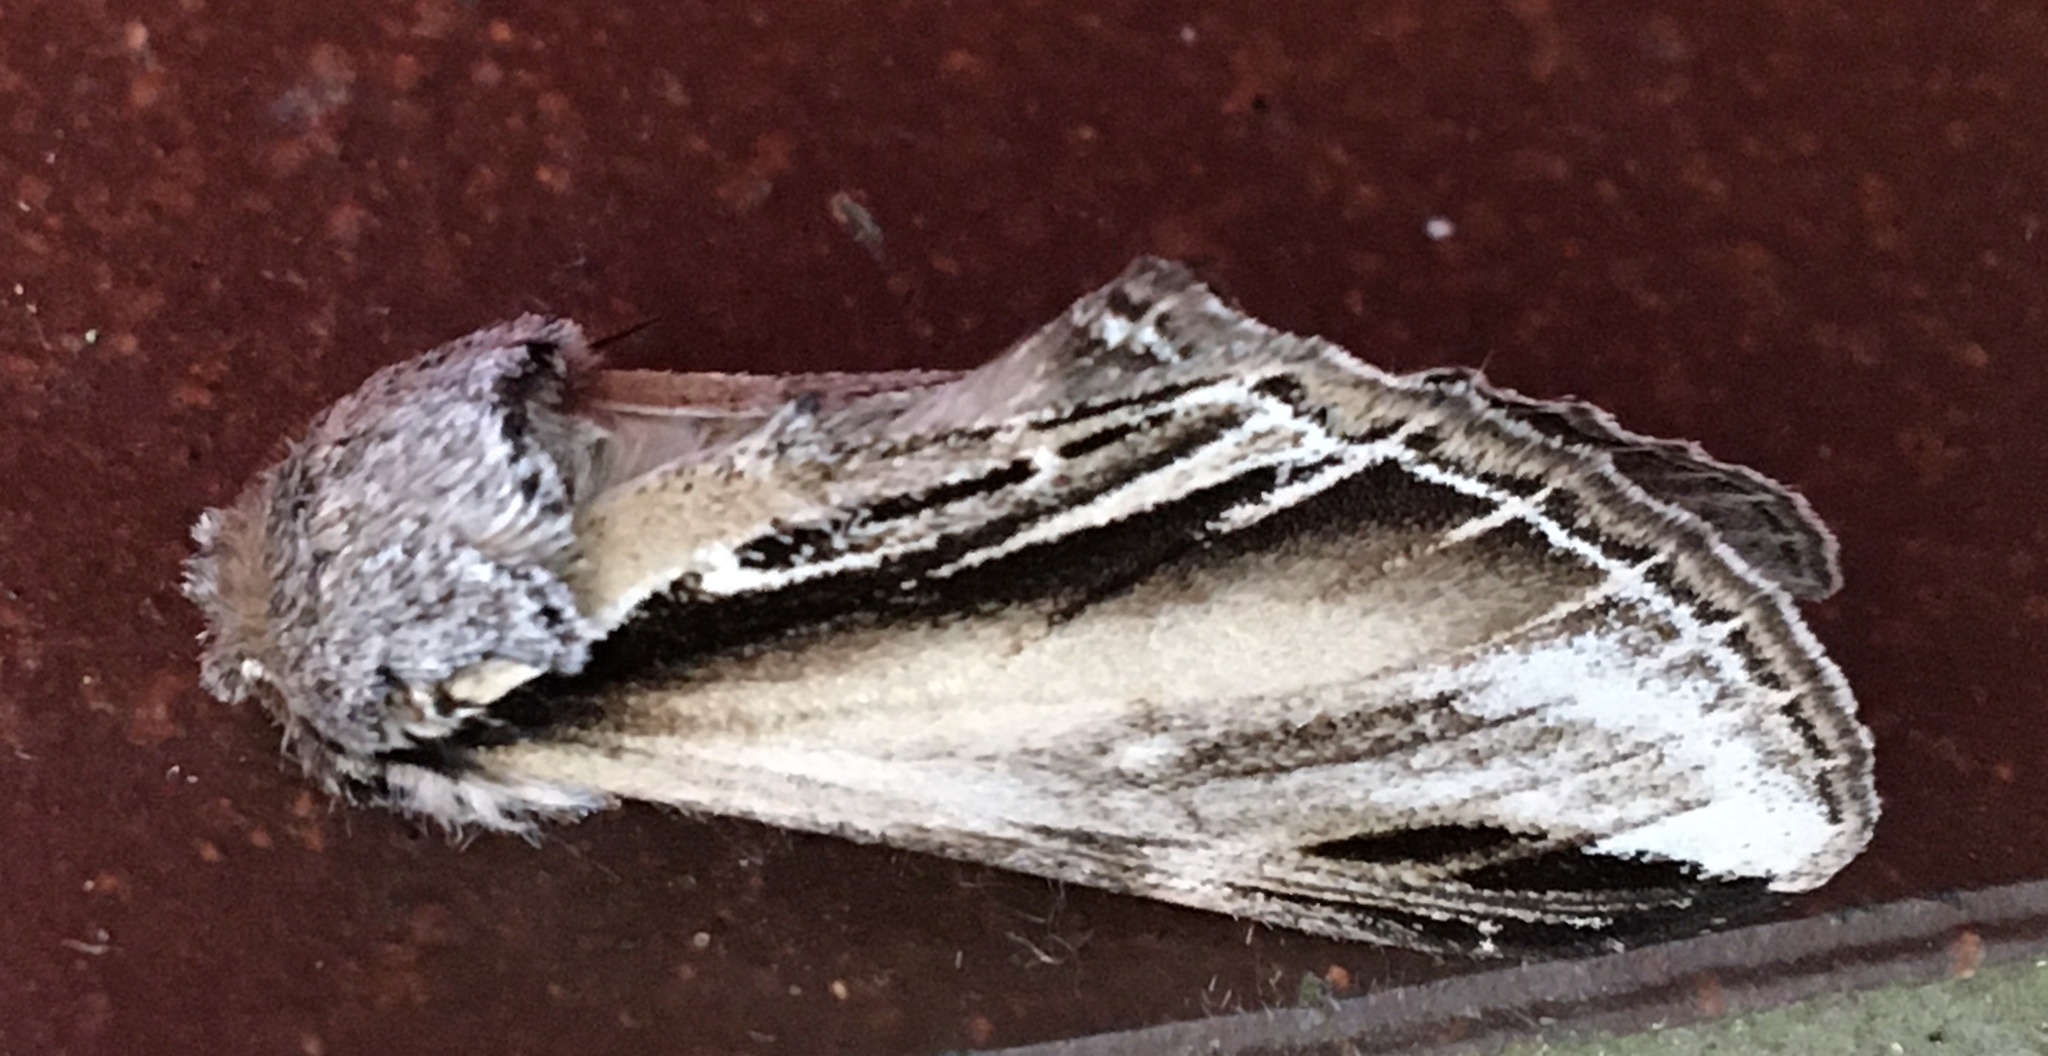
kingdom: Animalia
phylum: Arthropoda
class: Insecta
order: Lepidoptera
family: Notodontidae
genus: Pheosia
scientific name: Pheosia tremula
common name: Swallow prominent
